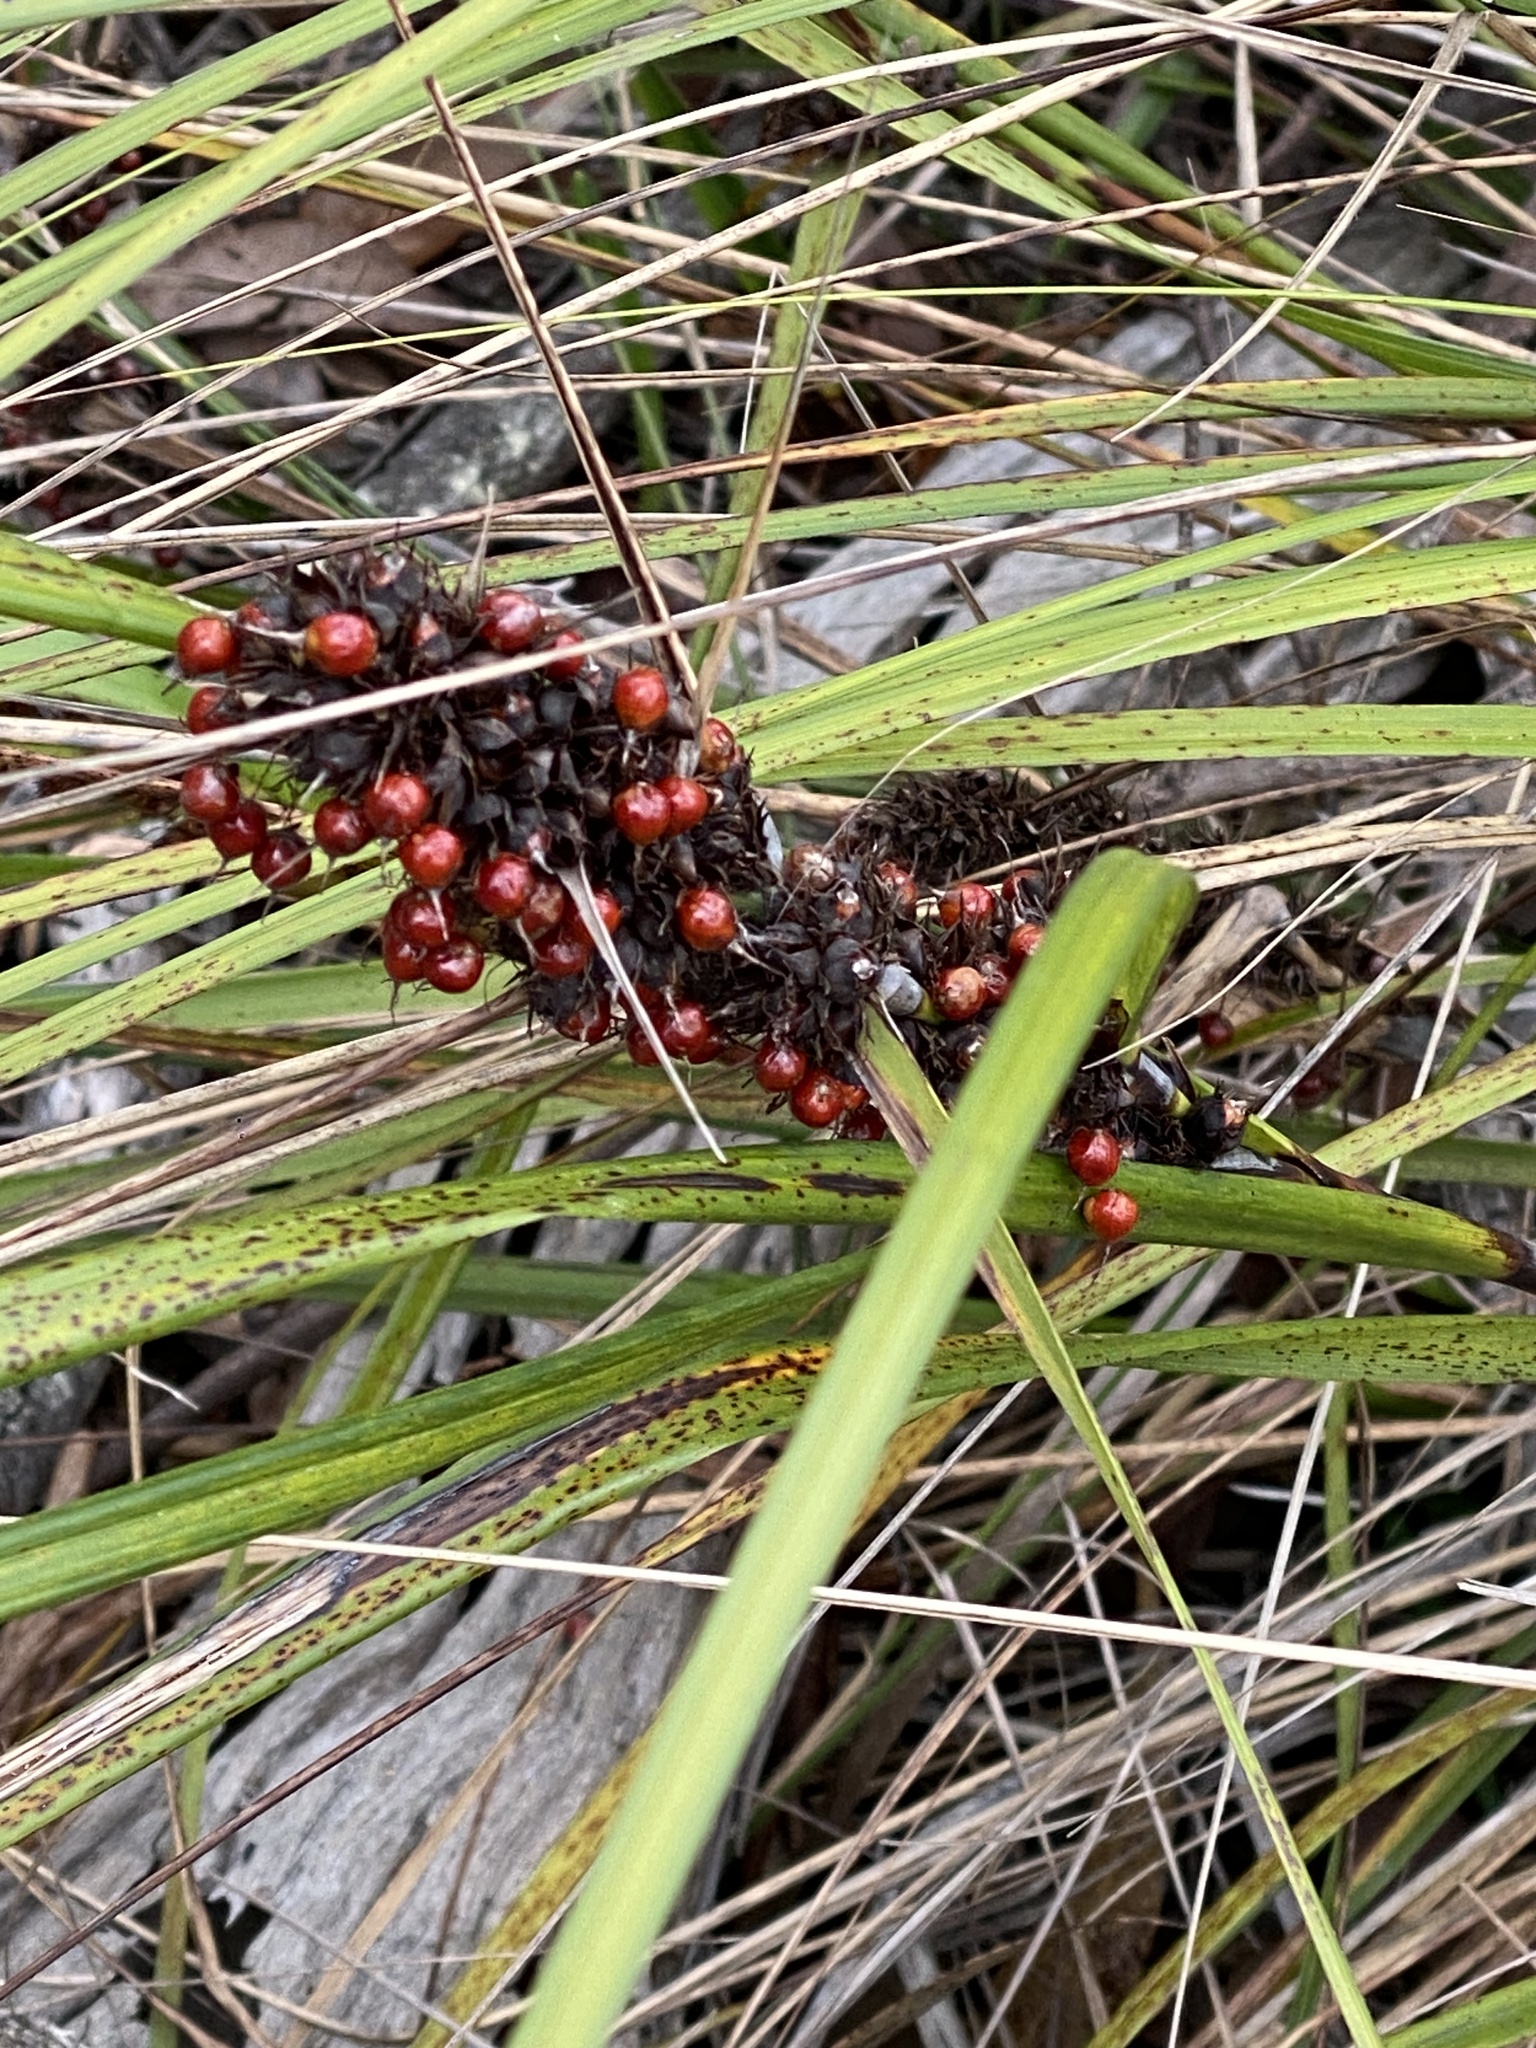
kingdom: Plantae
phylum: Tracheophyta
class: Liliopsida
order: Poales
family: Cyperaceae
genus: Gahnia
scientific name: Gahnia aspera
